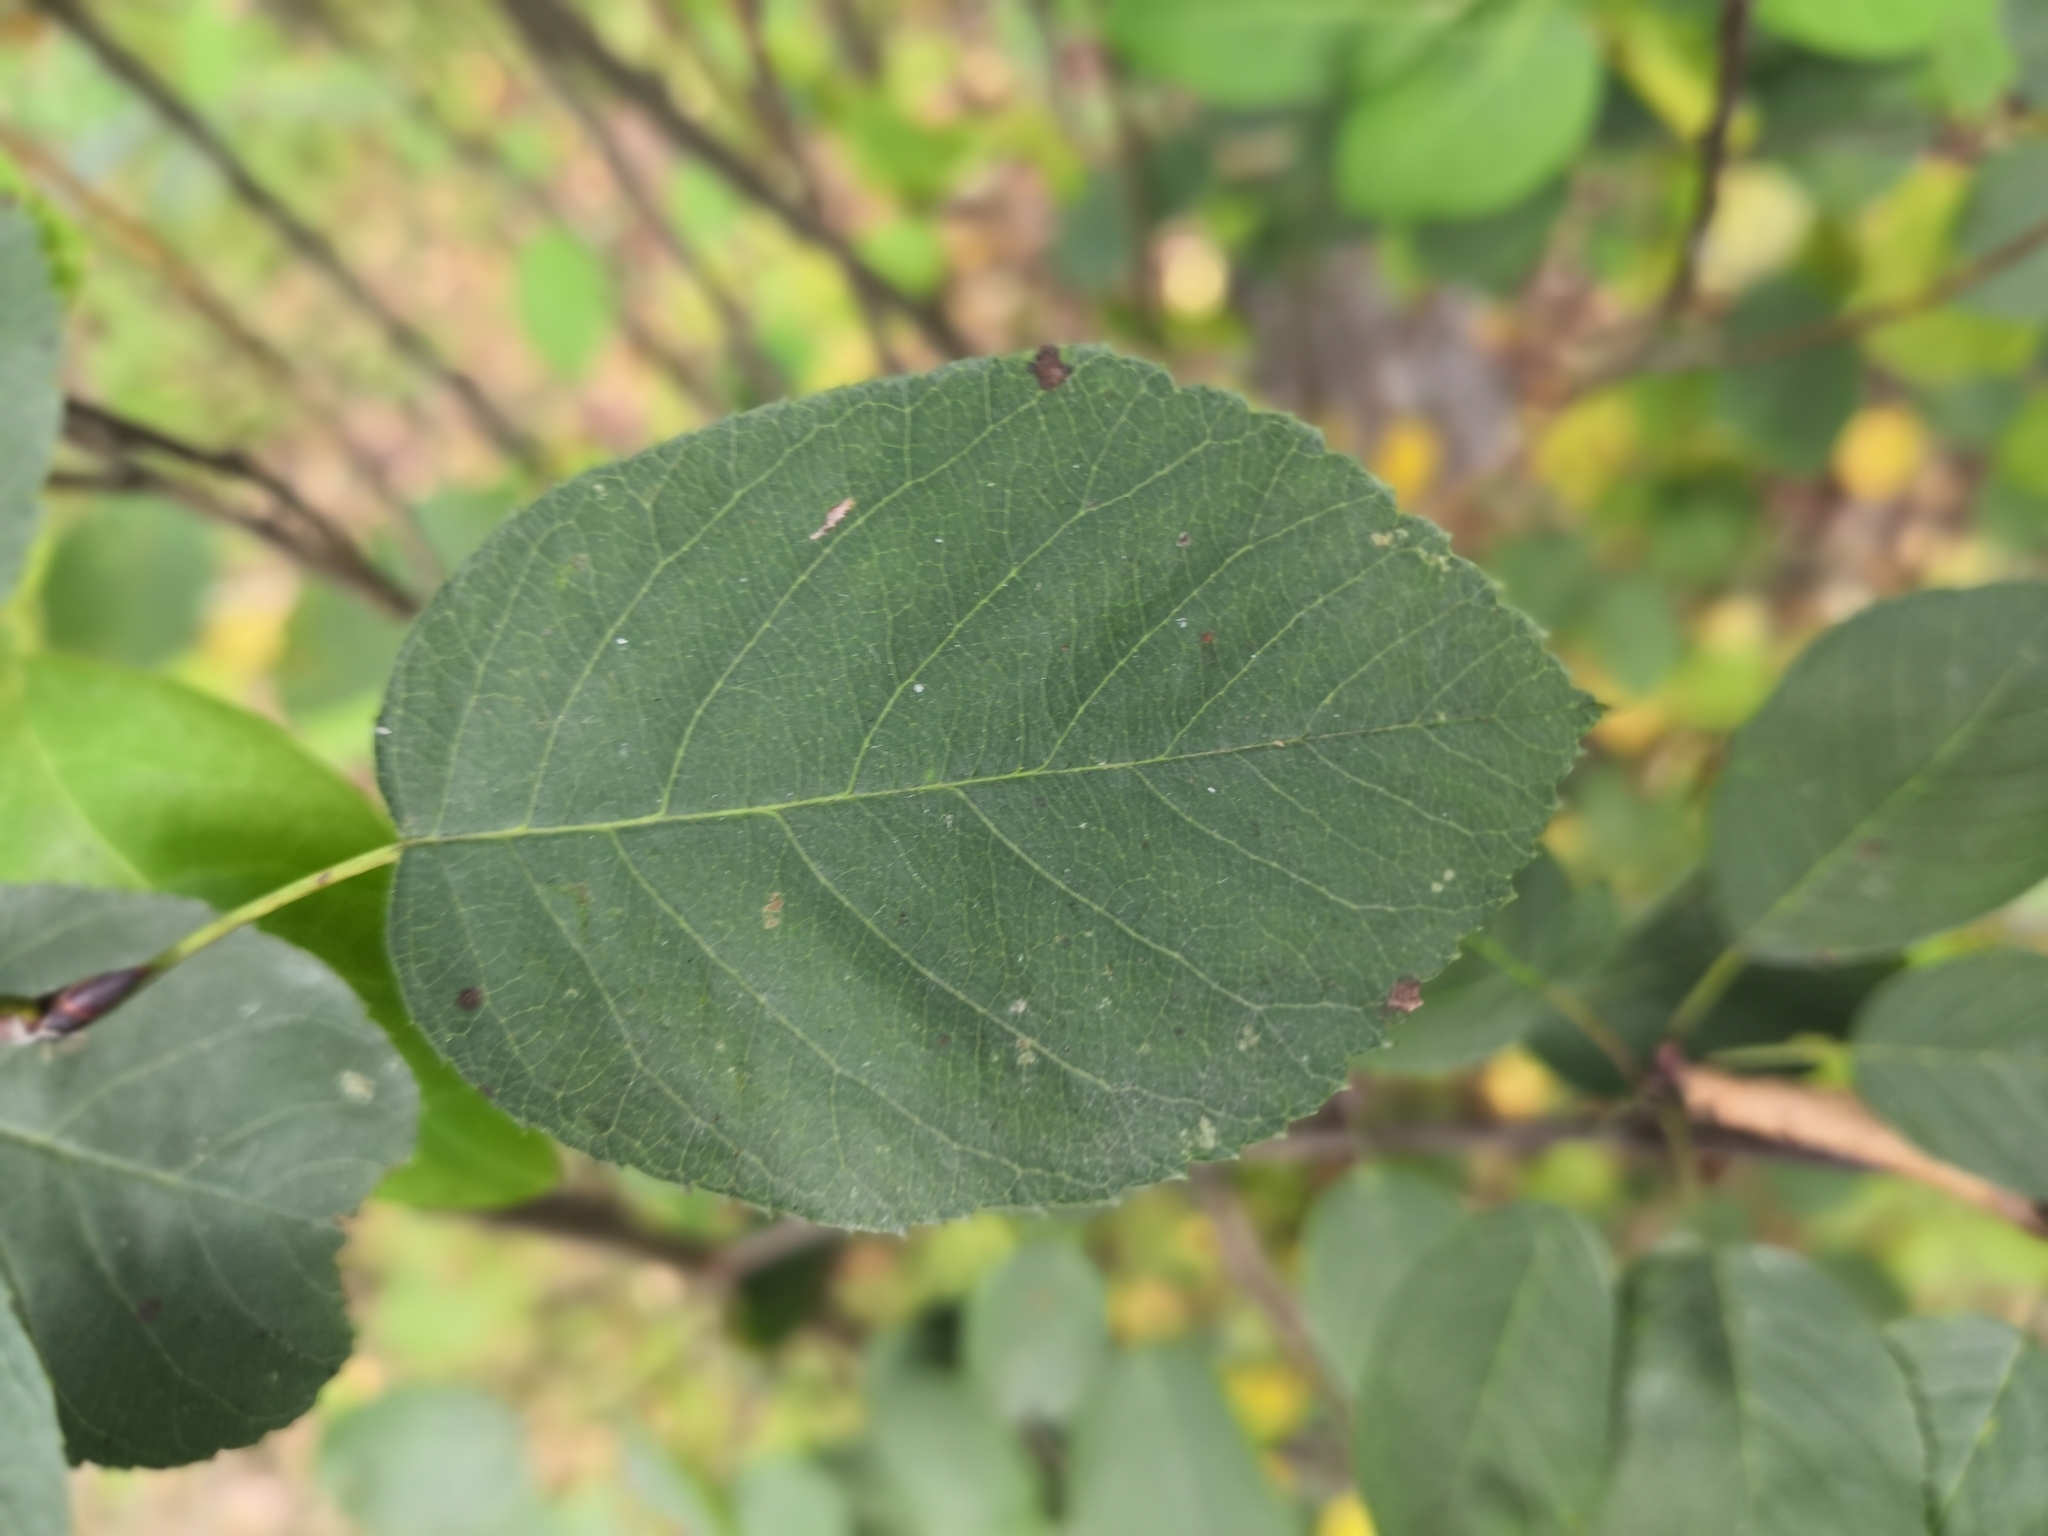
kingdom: Plantae
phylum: Tracheophyta
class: Magnoliopsida
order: Rosales
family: Rosaceae
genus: Amelanchier
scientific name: Amelanchier
